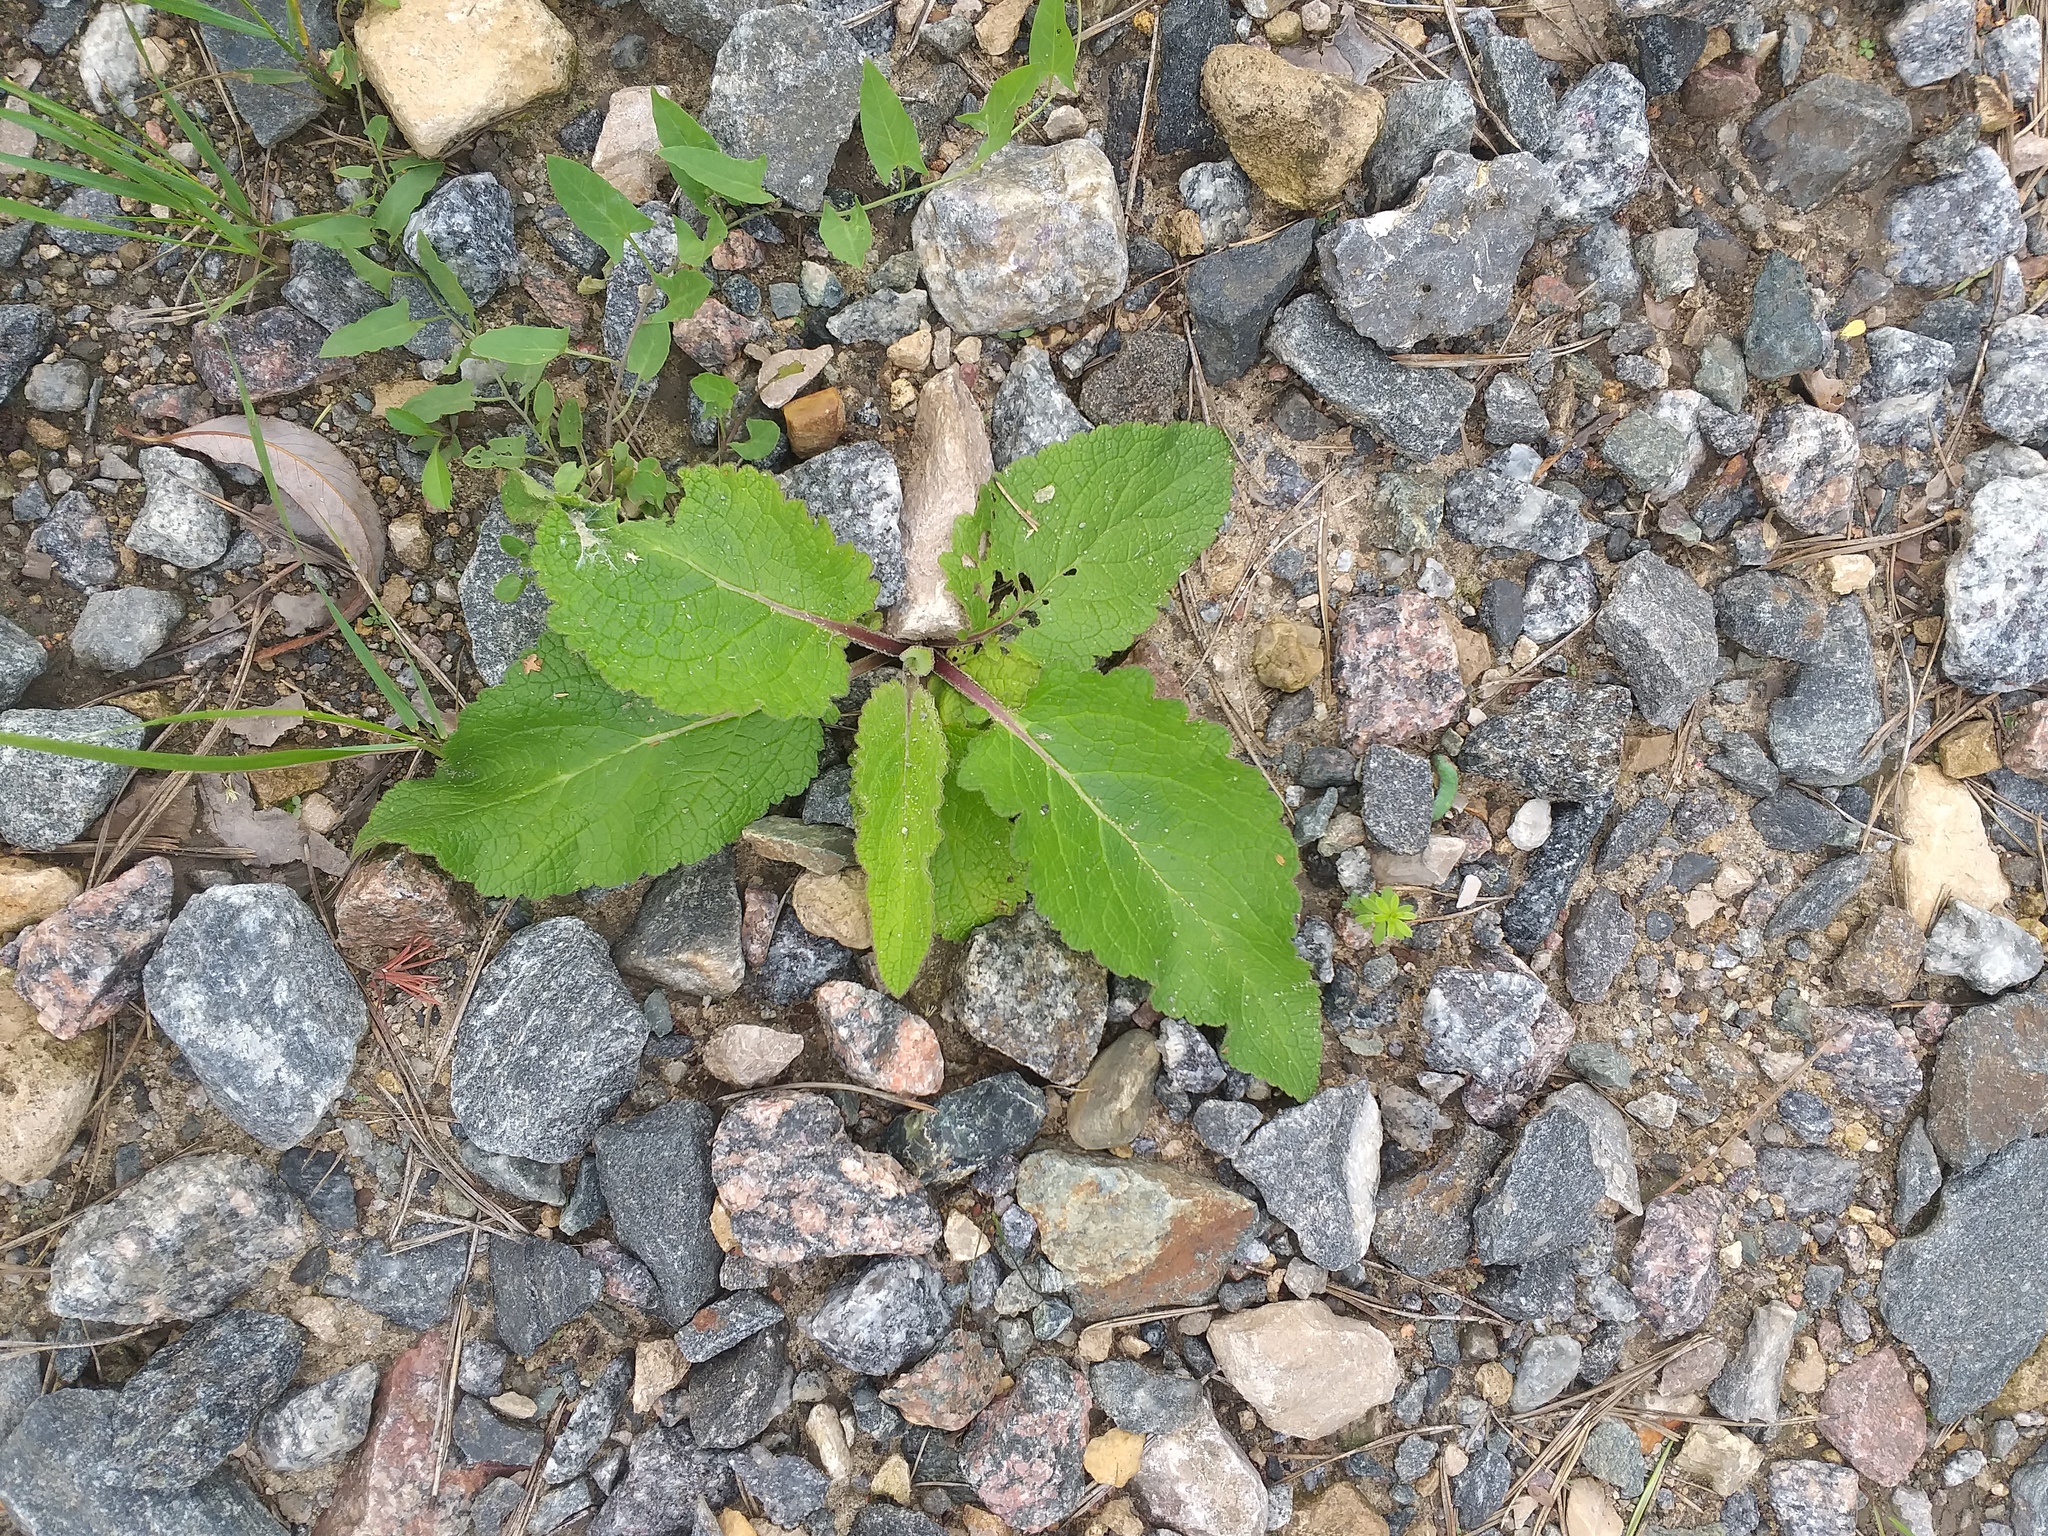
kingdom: Plantae
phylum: Tracheophyta
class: Magnoliopsida
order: Lamiales
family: Scrophulariaceae
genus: Verbascum
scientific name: Verbascum nigrum
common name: Dark mullein
